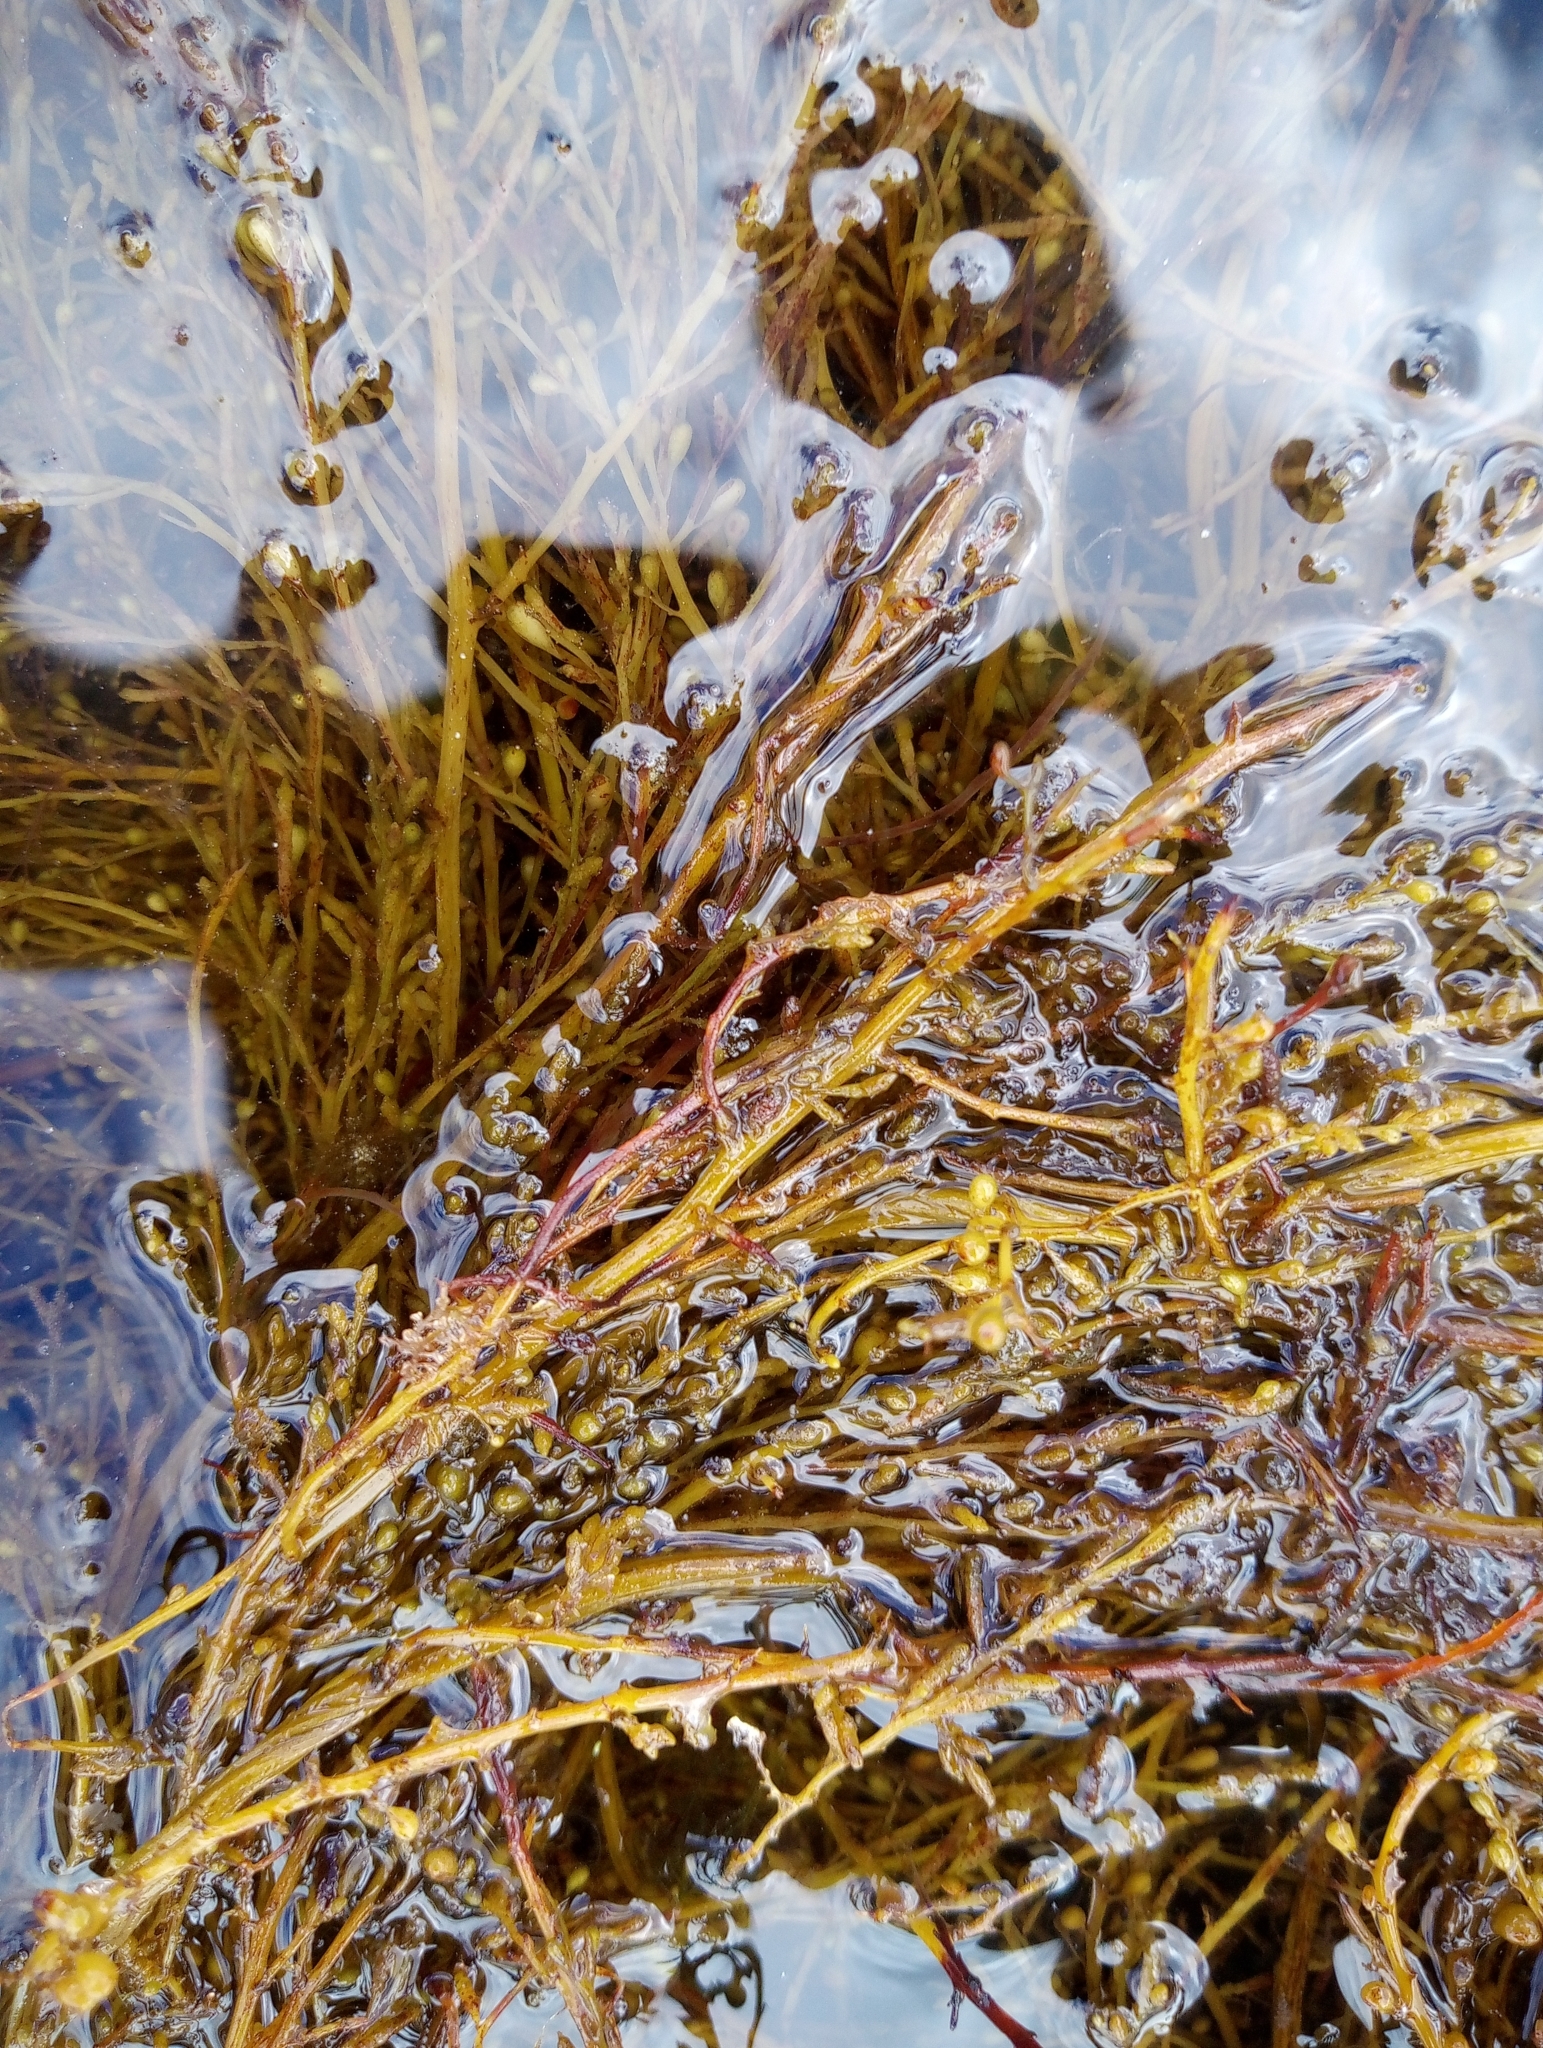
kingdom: Chromista
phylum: Ochrophyta
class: Phaeophyceae
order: Fucales
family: Sargassaceae
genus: Sargassum
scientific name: Sargassum muticum
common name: Japweed
